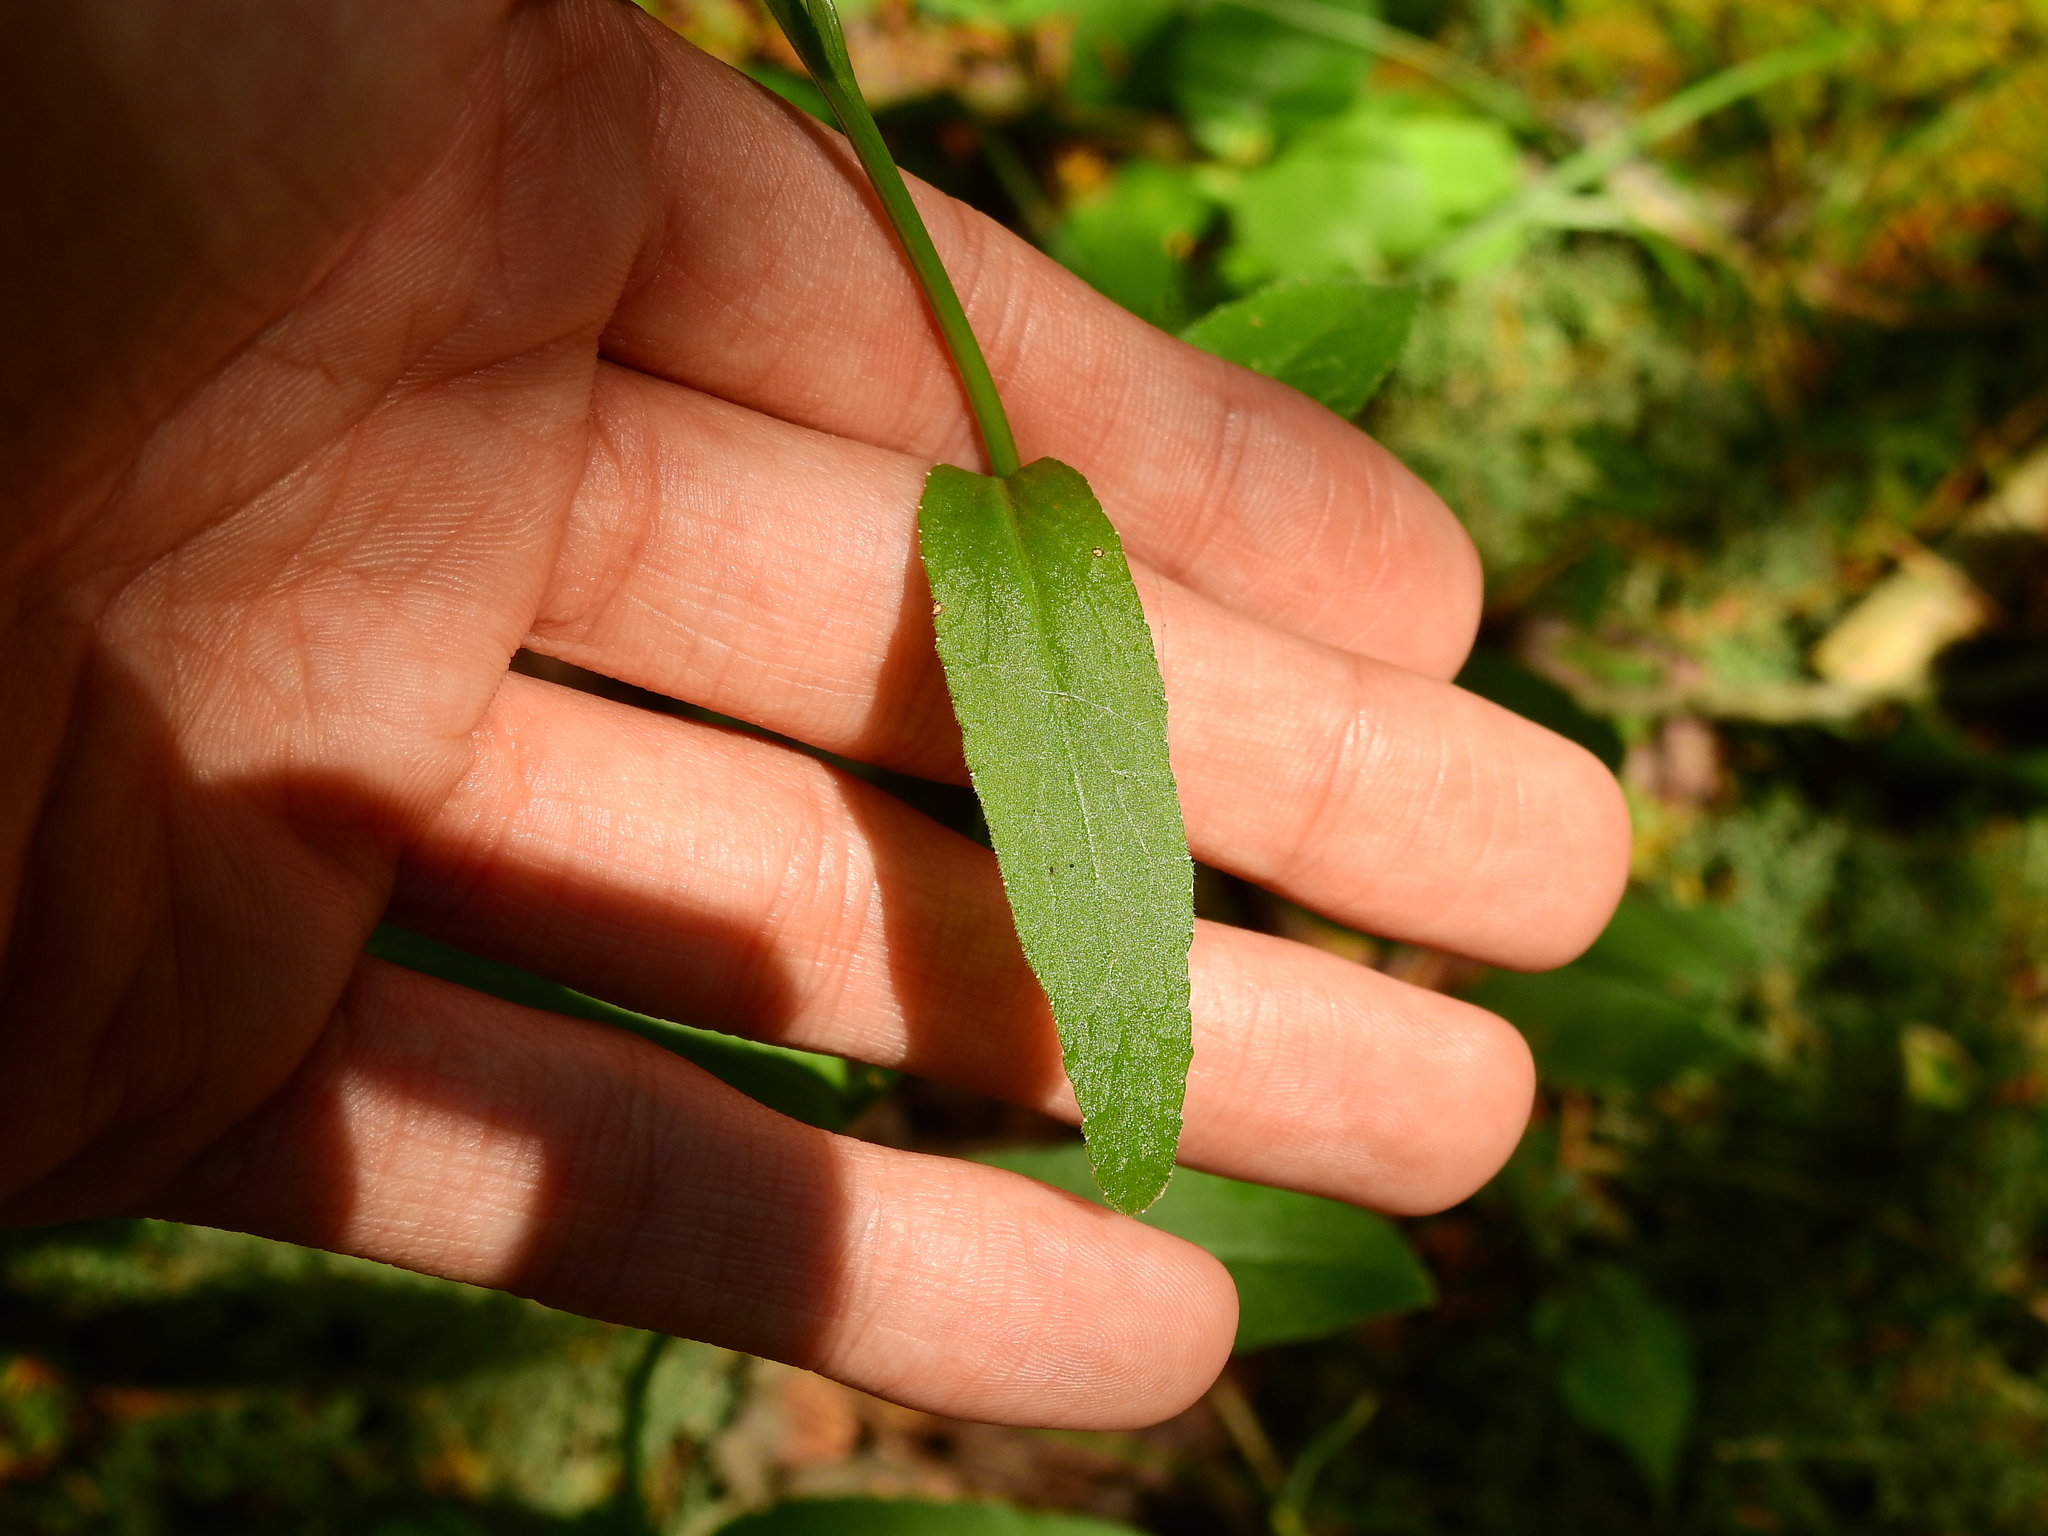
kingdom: Plantae
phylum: Tracheophyta
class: Magnoliopsida
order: Asterales
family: Campanulaceae
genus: Lobelia
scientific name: Lobelia spicata
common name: Pale-spike lobelia
